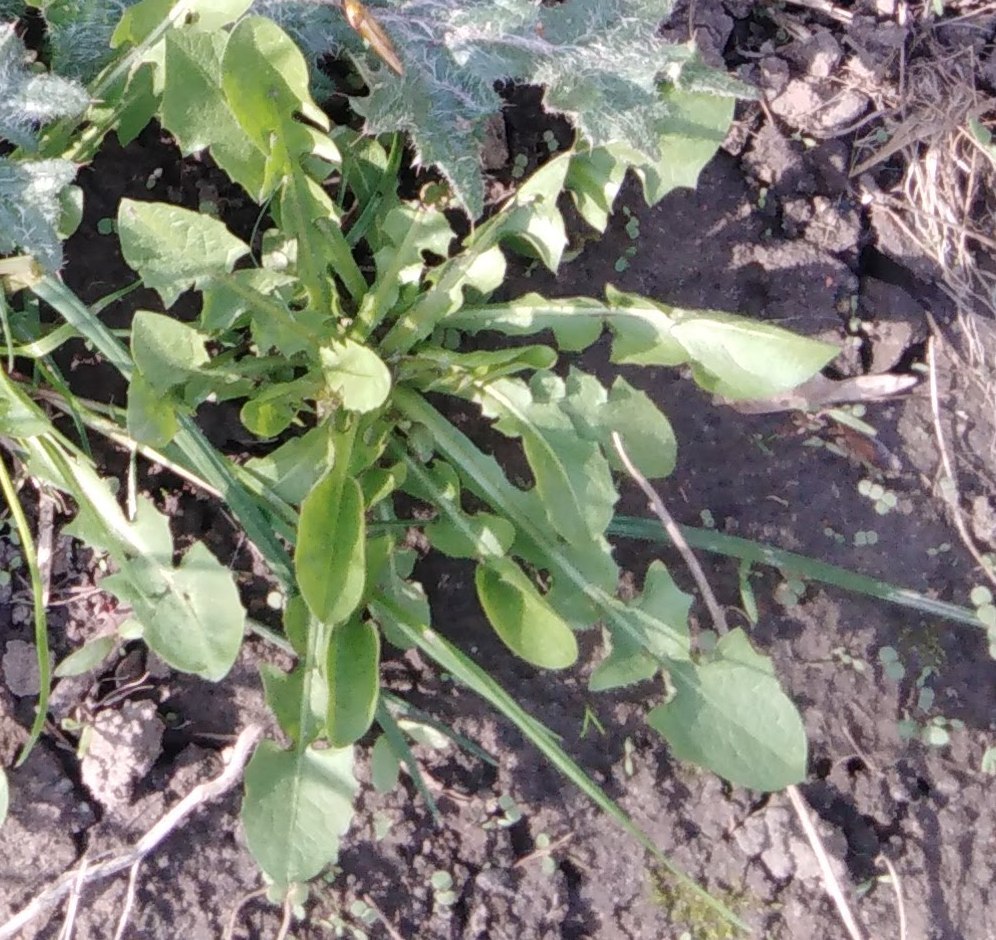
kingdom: Plantae
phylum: Tracheophyta
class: Magnoliopsida
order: Asterales
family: Asteraceae
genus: Taraxacum
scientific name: Taraxacum officinale
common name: Common dandelion
